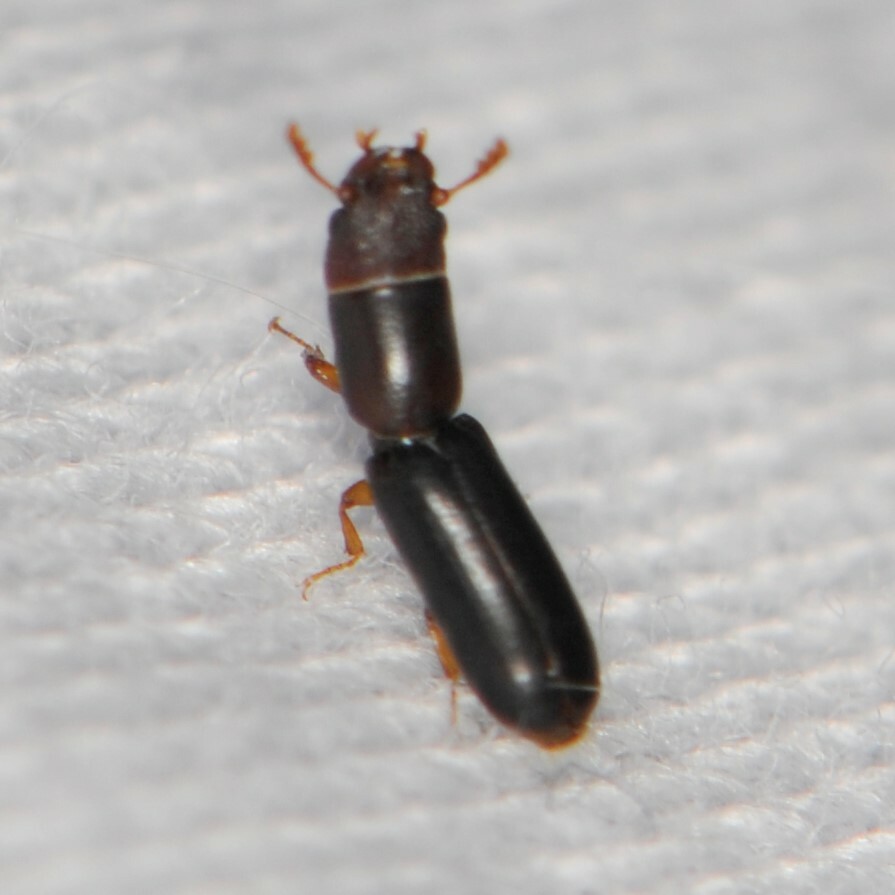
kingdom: Animalia
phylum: Arthropoda
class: Insecta
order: Coleoptera
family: Trogossitidae
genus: Corticotomus
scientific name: Corticotomus
